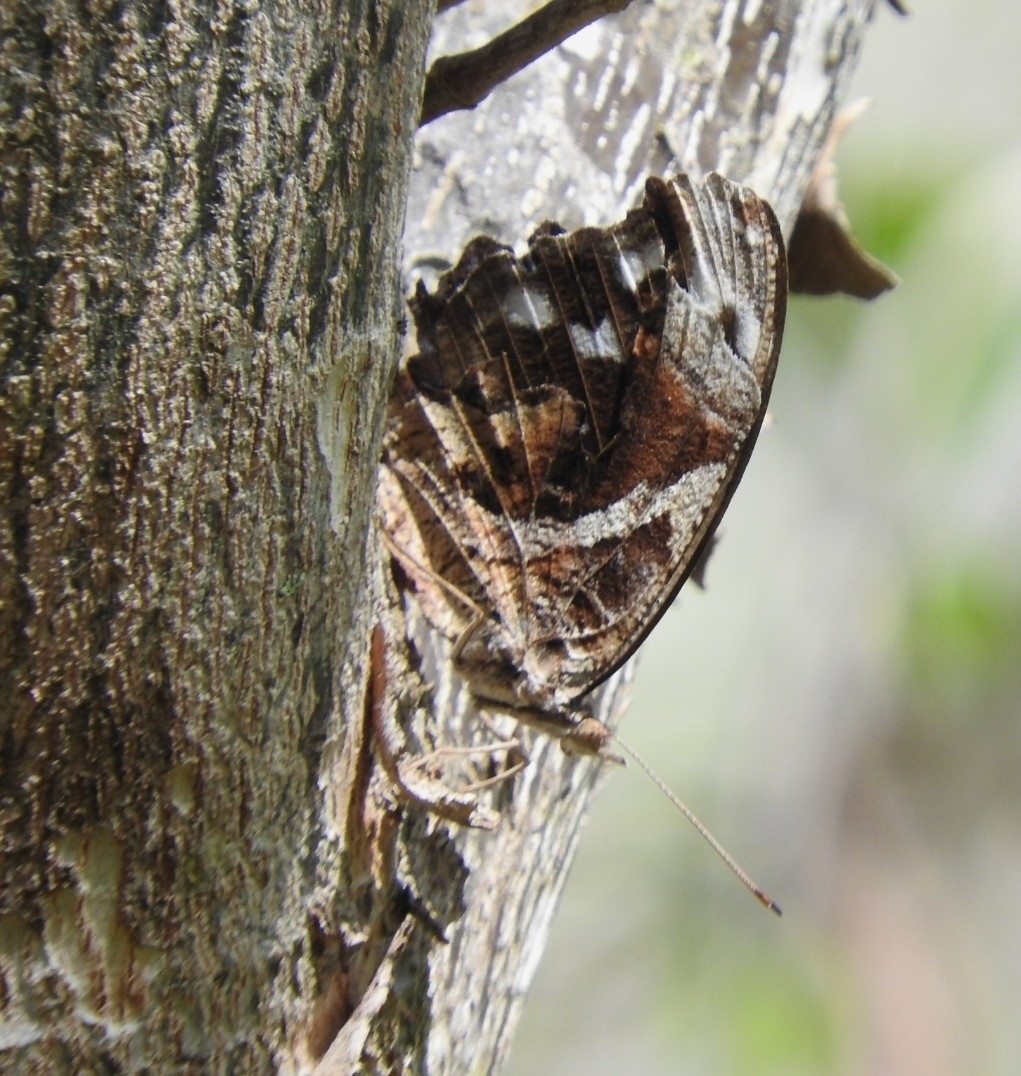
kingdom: Animalia
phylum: Arthropoda
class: Insecta
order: Lepidoptera
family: Nymphalidae
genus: Myscelia
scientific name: Myscelia ethusa
